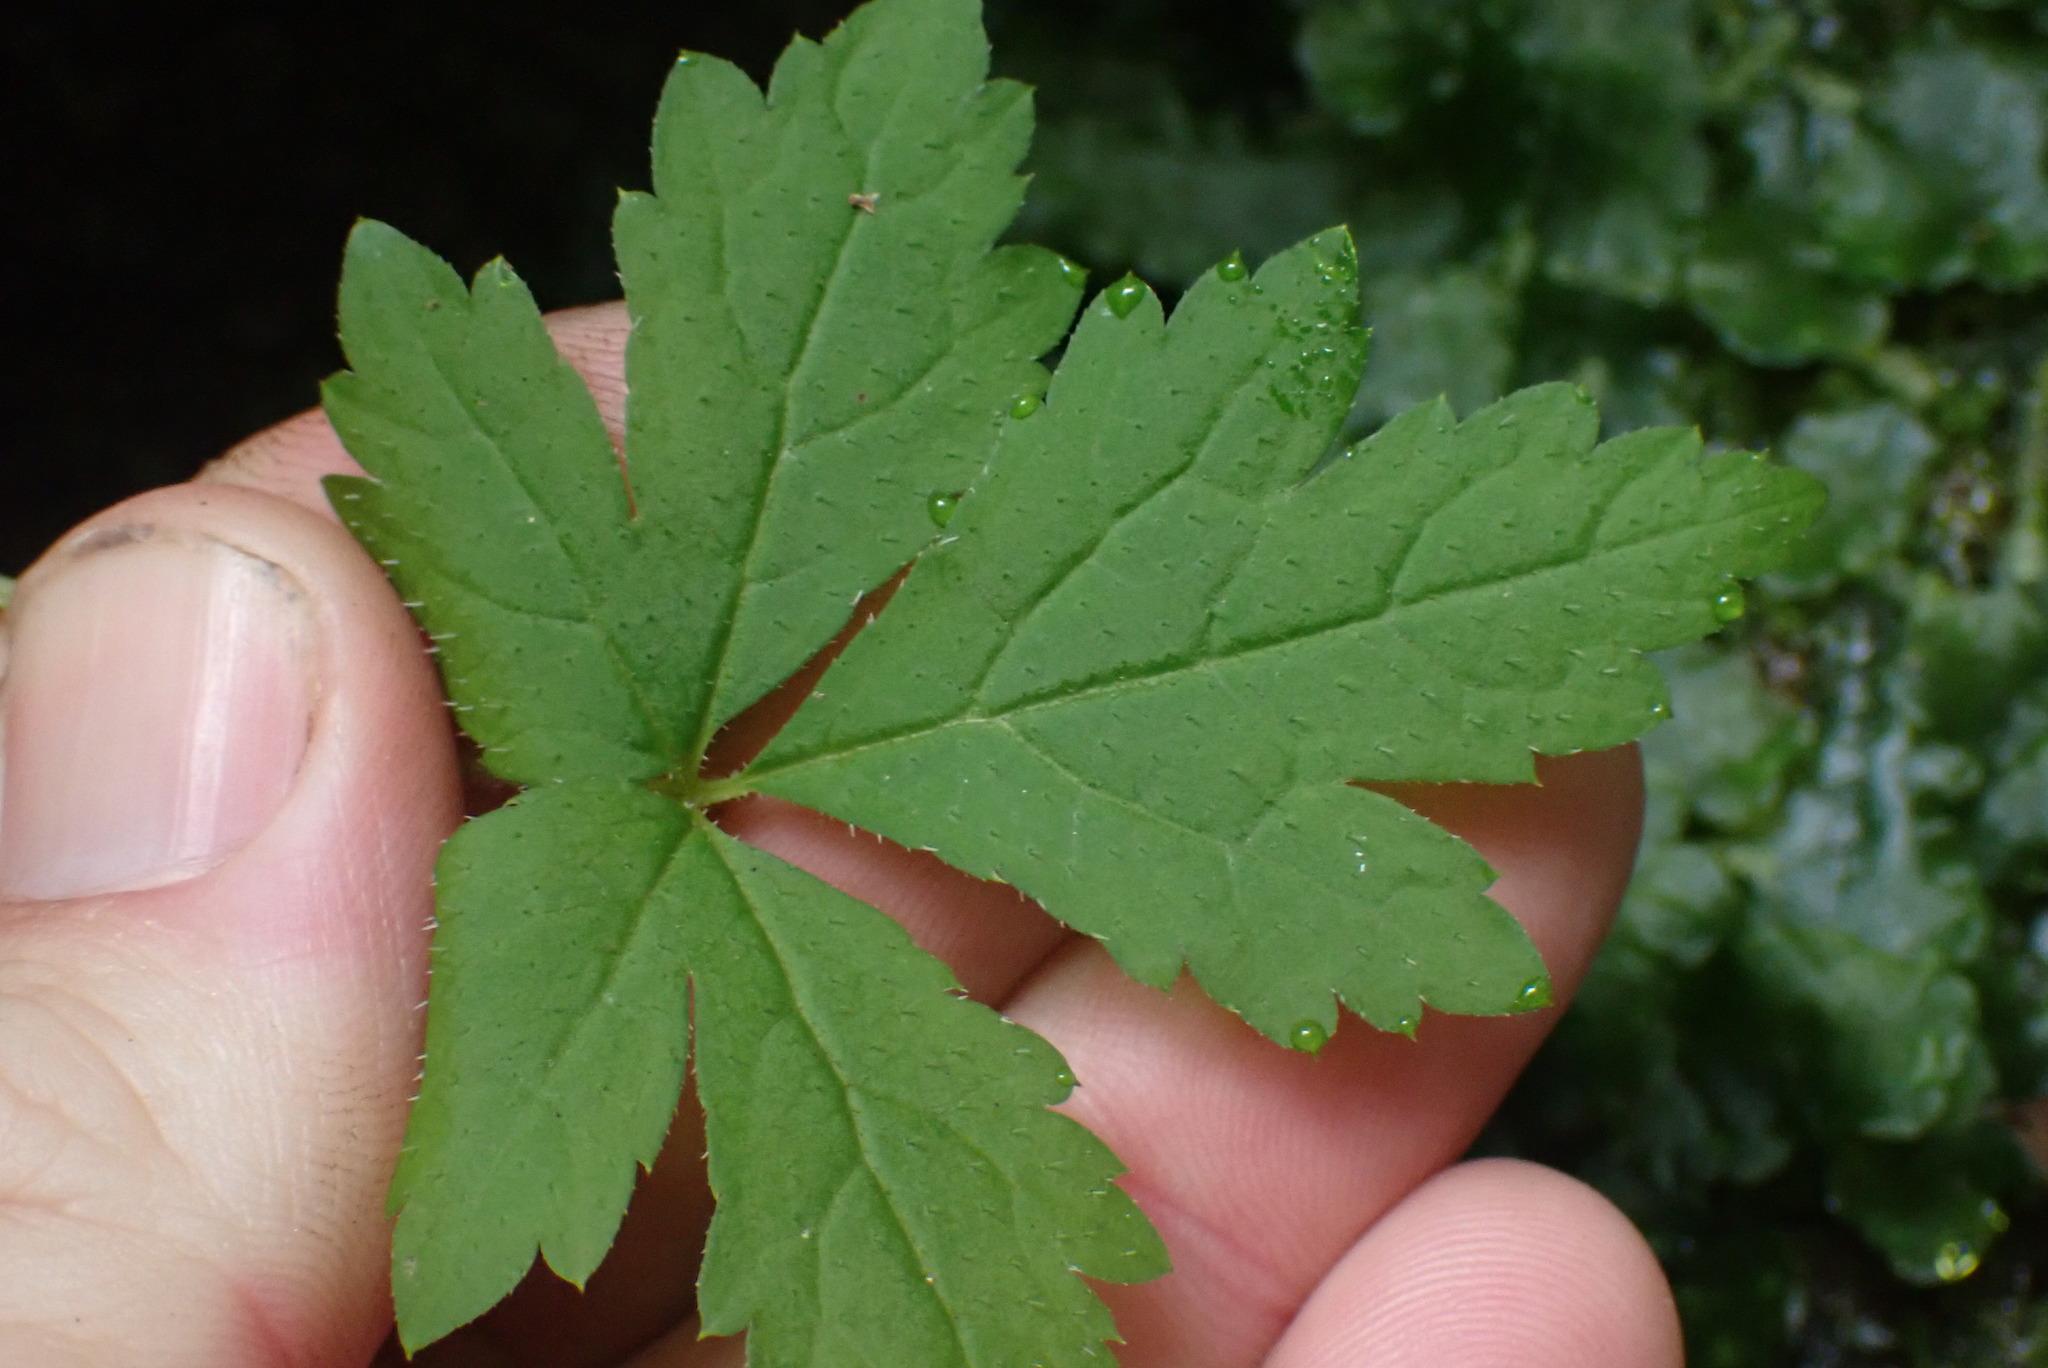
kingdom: Plantae
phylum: Tracheophyta
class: Magnoliopsida
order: Saxifragales
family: Saxifragaceae
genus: Tiarella
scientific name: Tiarella trifoliata
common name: Sugar-scoop
